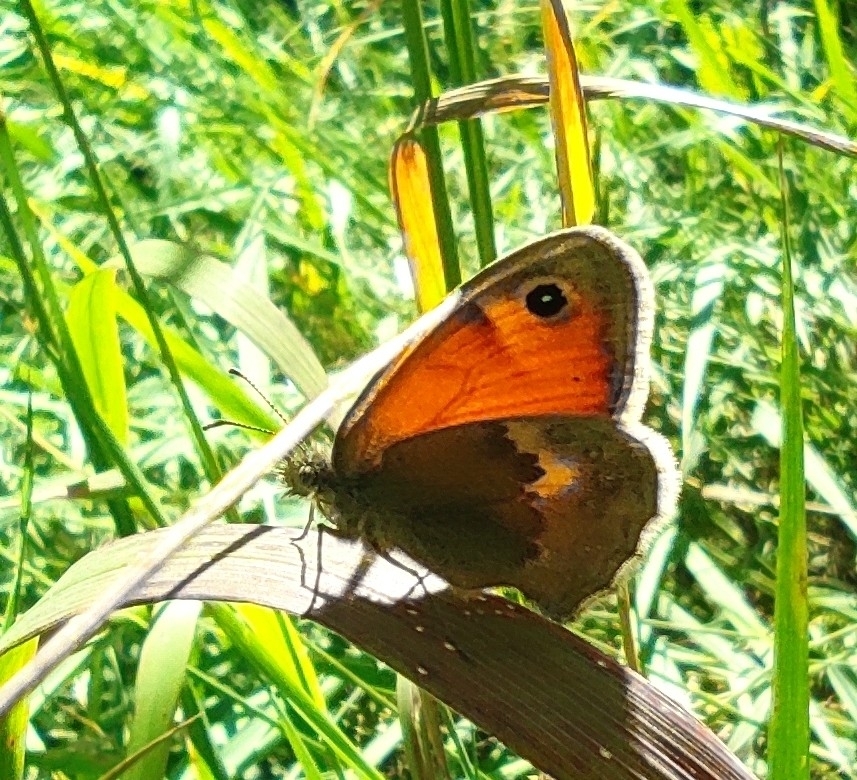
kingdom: Animalia
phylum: Arthropoda
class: Insecta
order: Lepidoptera
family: Nymphalidae
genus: Coenonympha
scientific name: Coenonympha pamphilus
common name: Small heath
